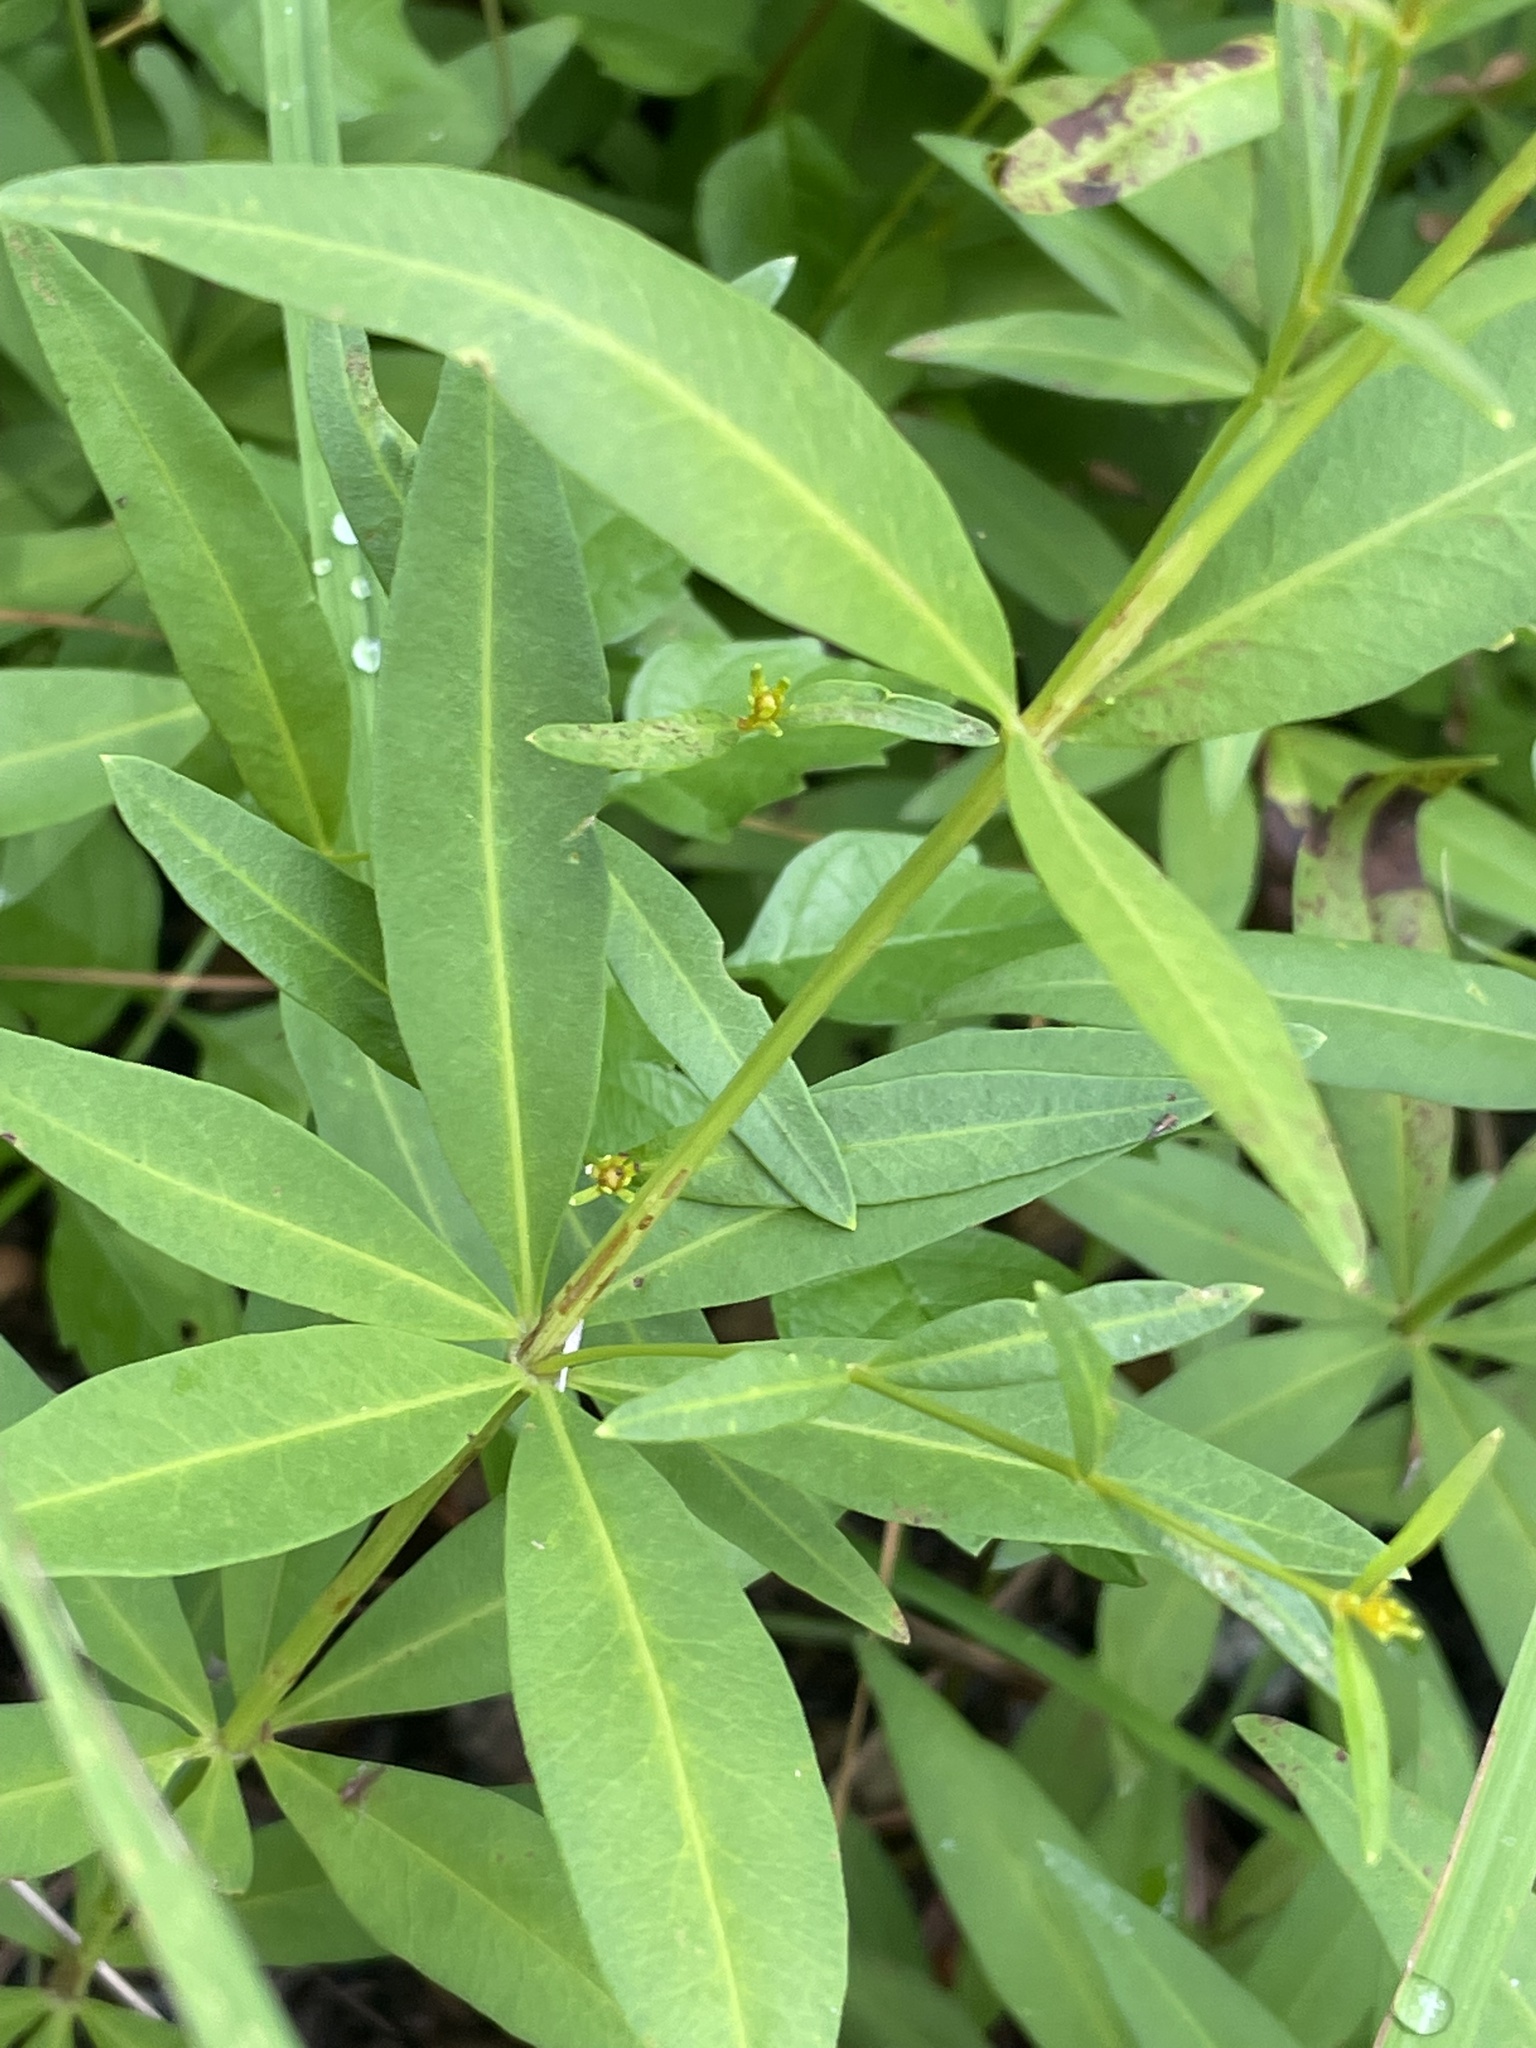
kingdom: Plantae
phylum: Tracheophyta
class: Magnoliopsida
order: Asterales
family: Asteraceae
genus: Coreopsis
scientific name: Coreopsis major
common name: Forest tickseed
